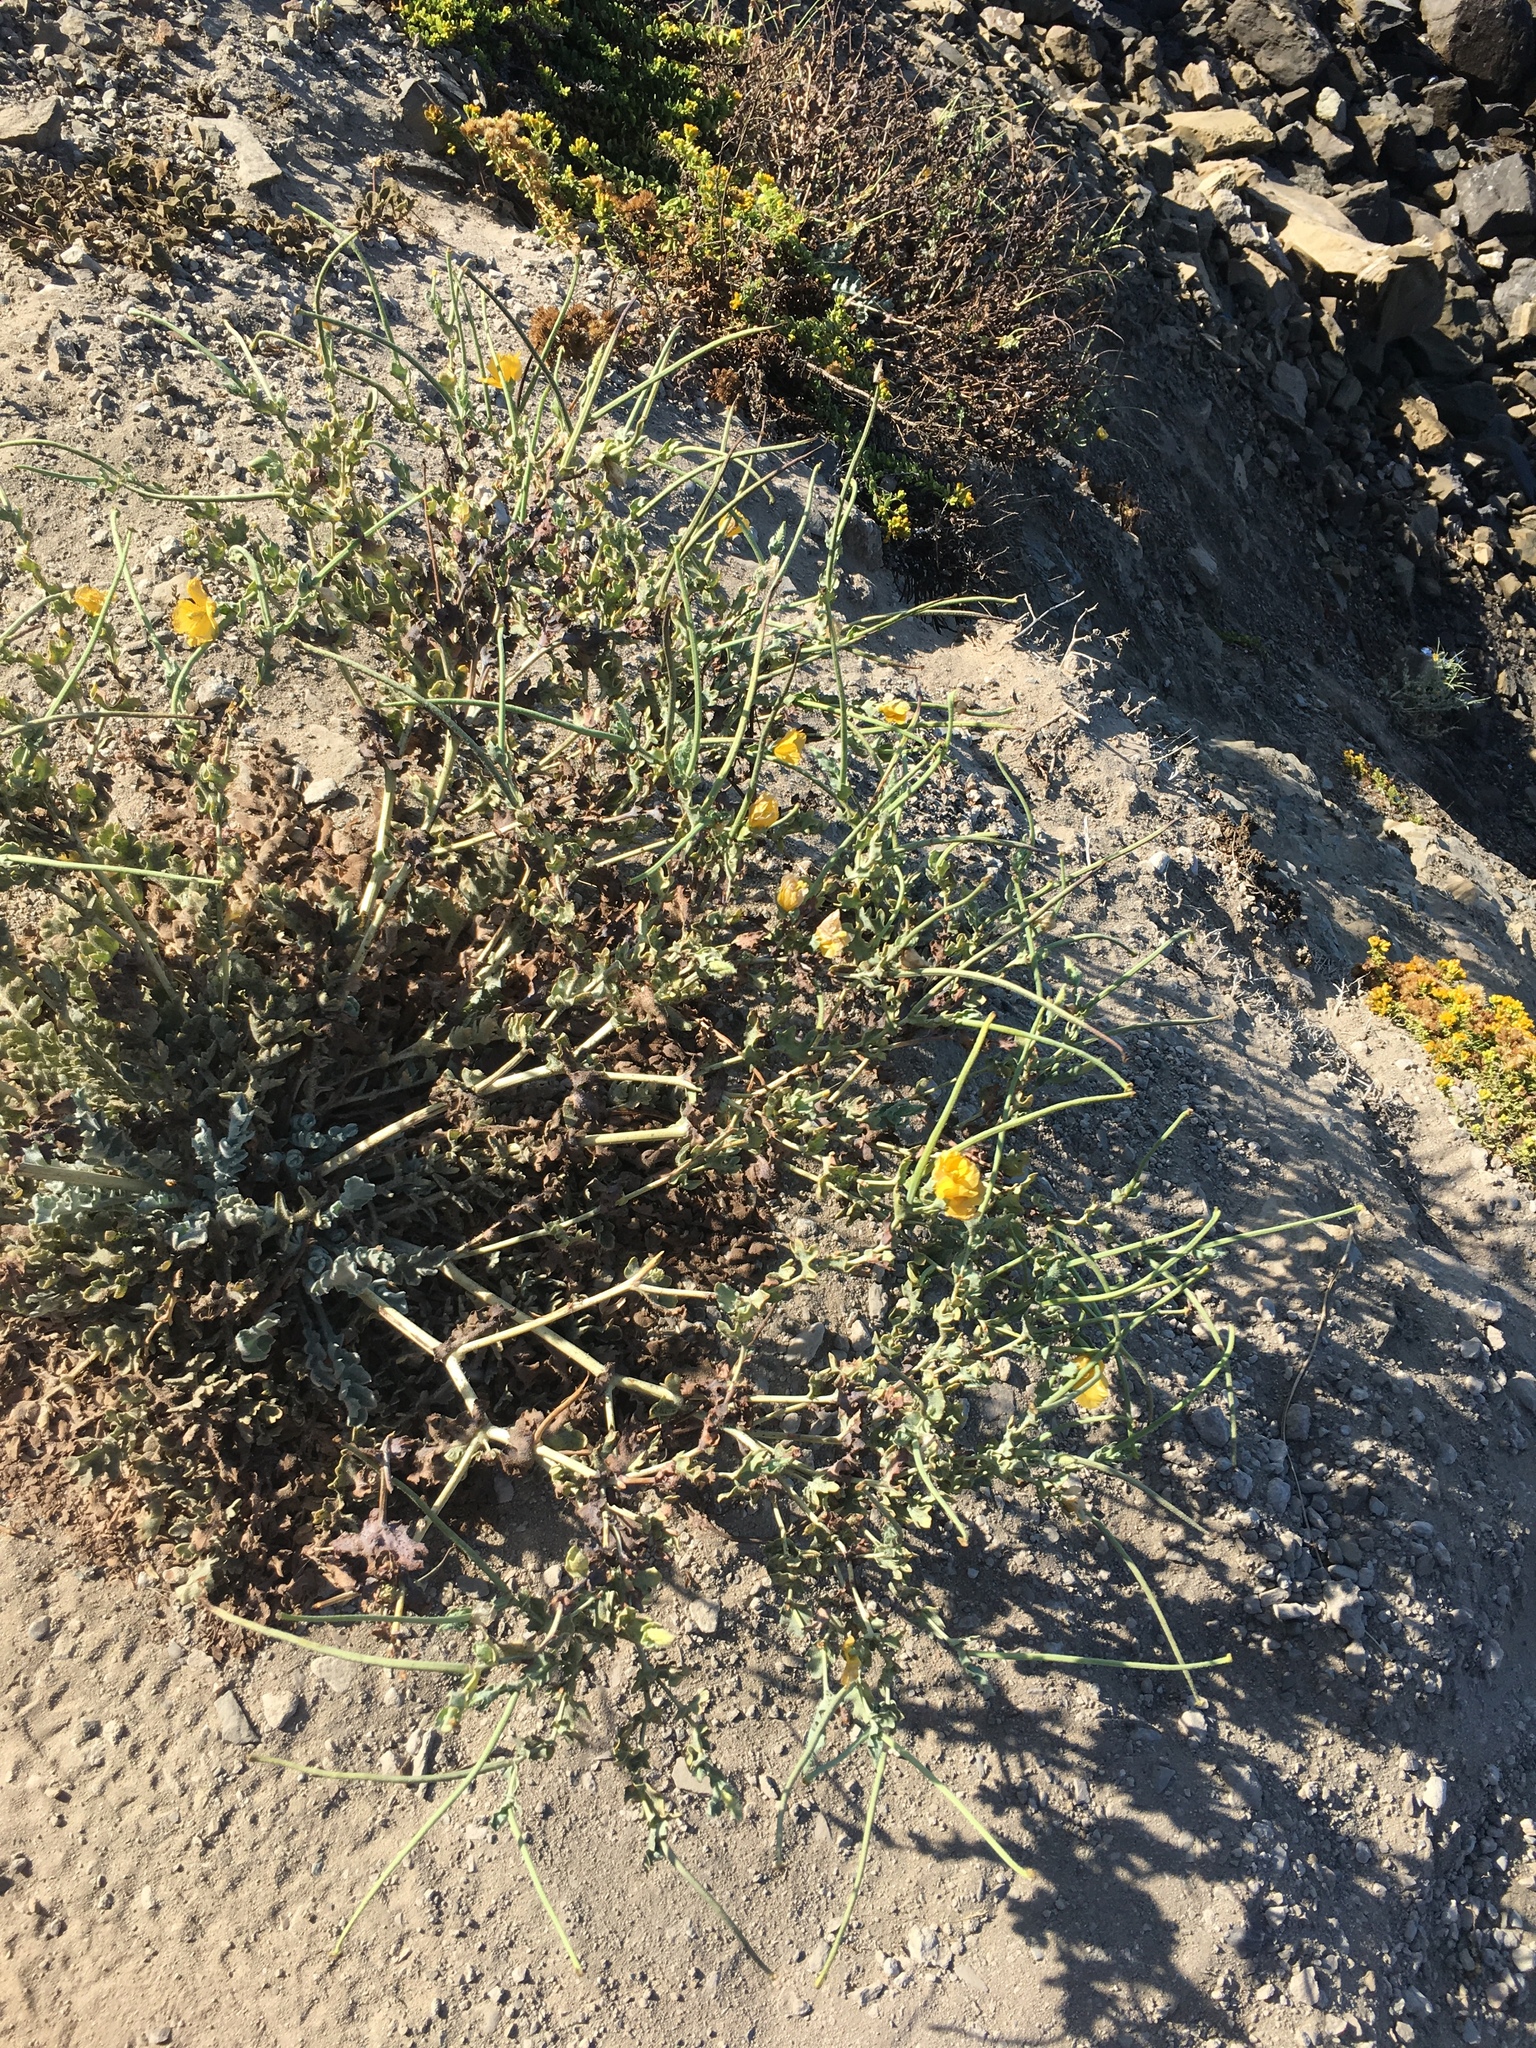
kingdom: Plantae
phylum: Tracheophyta
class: Magnoliopsida
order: Ranunculales
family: Papaveraceae
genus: Glaucium
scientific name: Glaucium flavum
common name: Yellow horned-poppy
